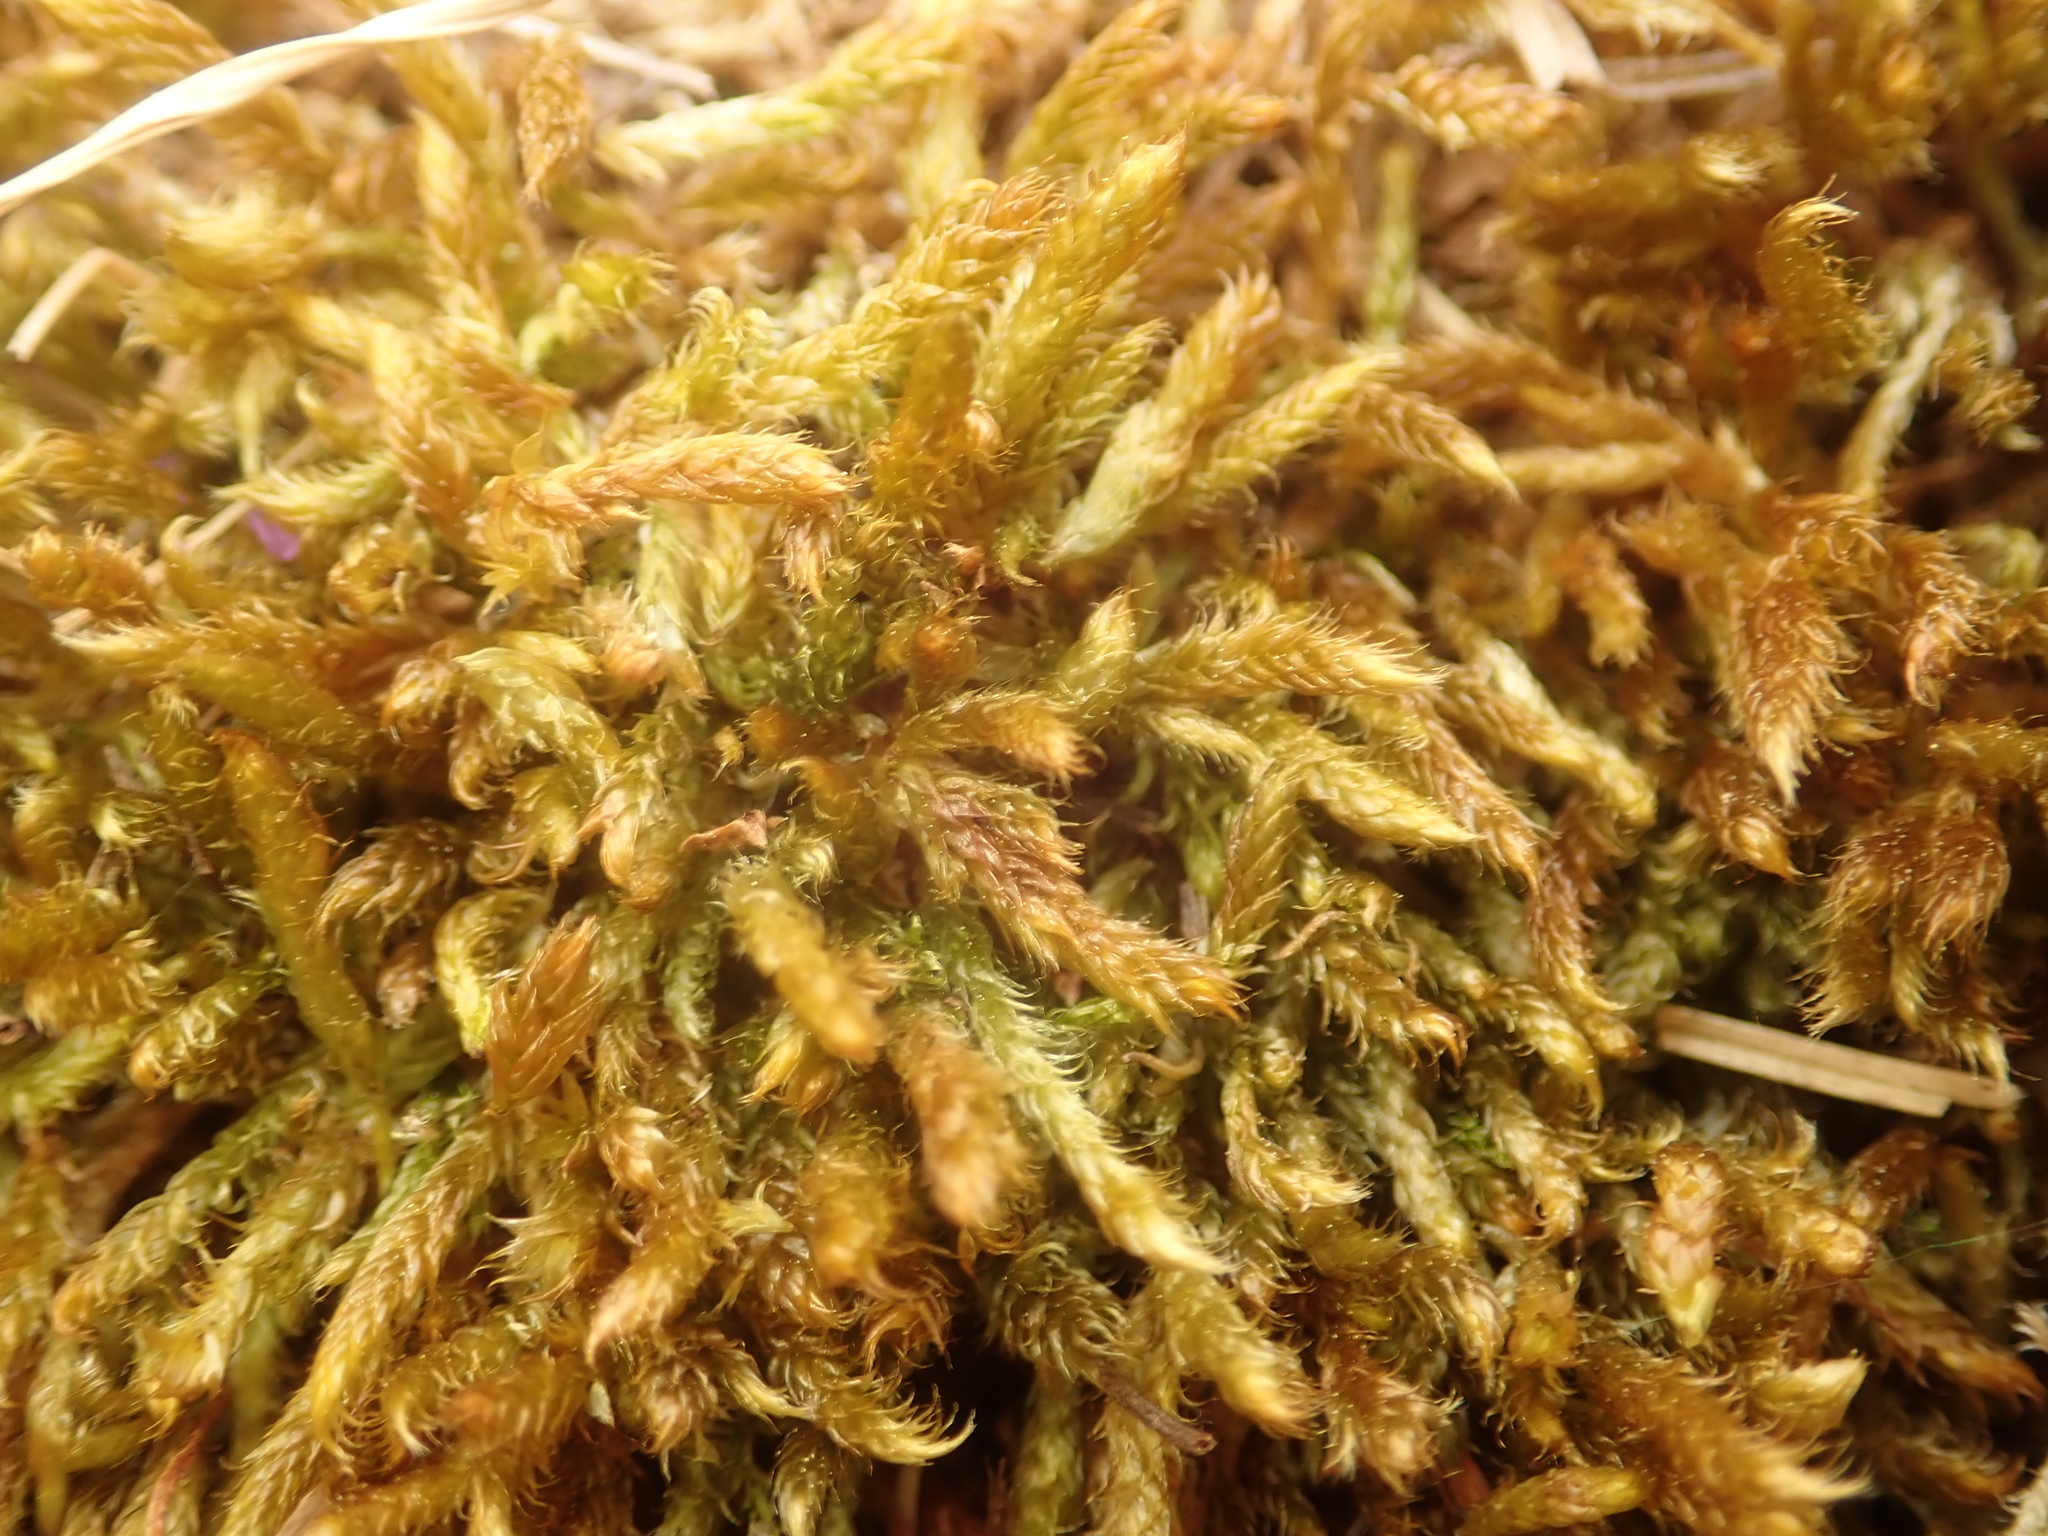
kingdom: Plantae
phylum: Bryophyta
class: Bryopsida
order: Hypnales
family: Hypnaceae
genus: Hypnum
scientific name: Hypnum cupressiforme
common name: Cypress-leaved plait-moss
